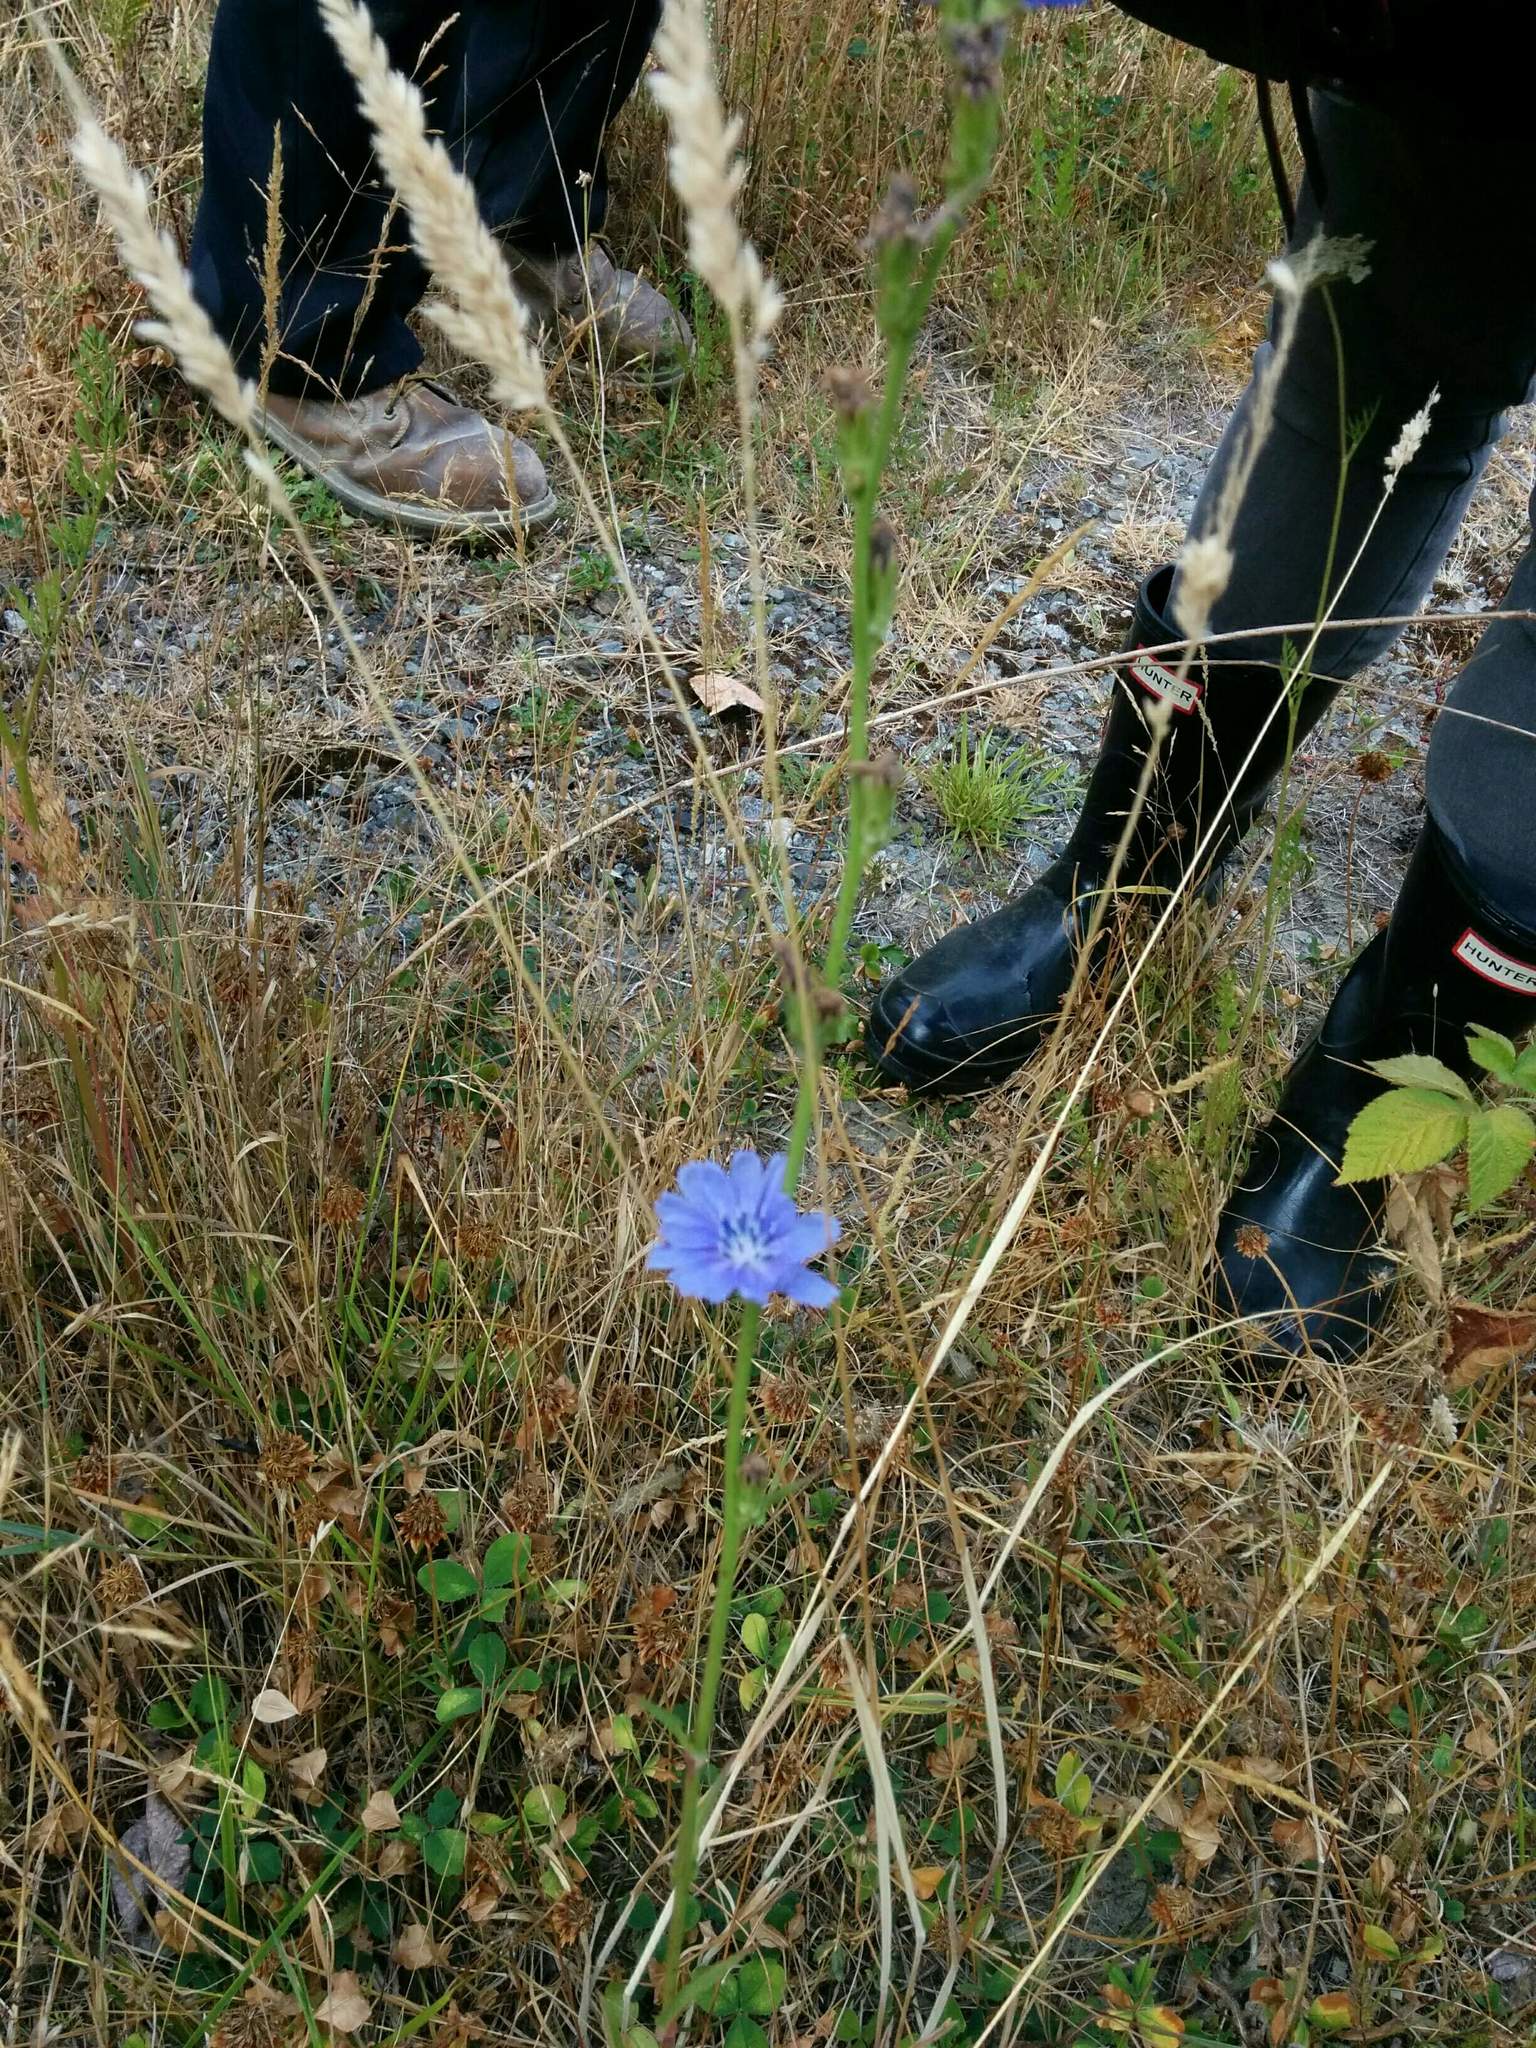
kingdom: Plantae
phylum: Tracheophyta
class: Magnoliopsida
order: Asterales
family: Asteraceae
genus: Cichorium
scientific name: Cichorium intybus
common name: Chicory
